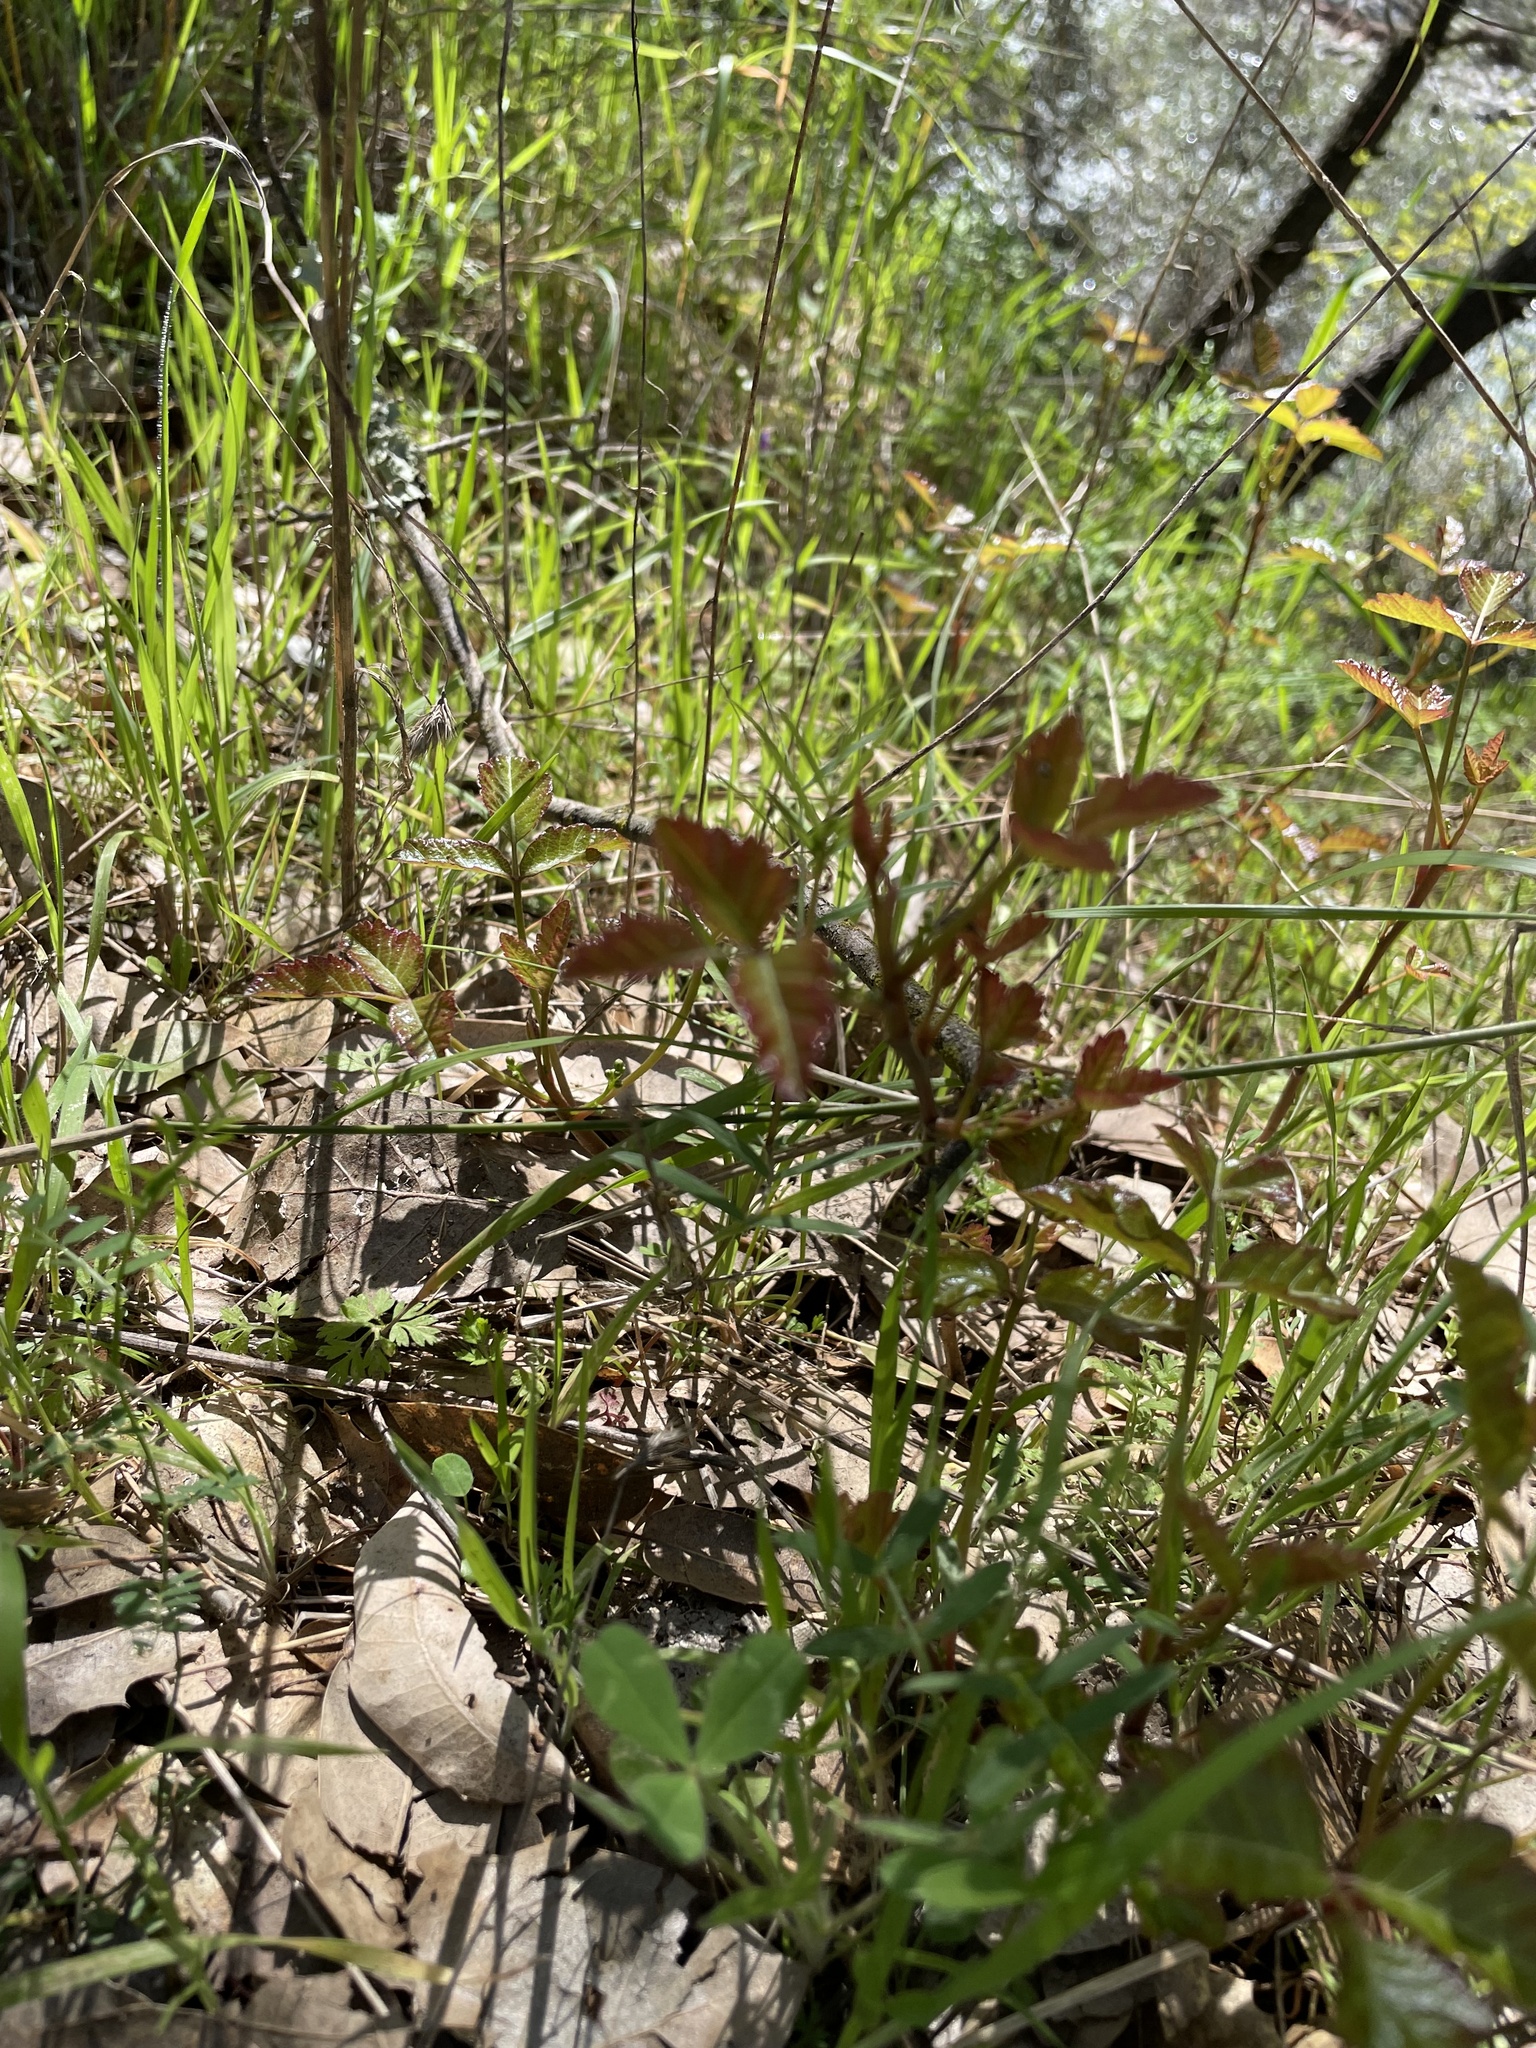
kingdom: Plantae
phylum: Tracheophyta
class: Magnoliopsida
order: Sapindales
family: Anacardiaceae
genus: Toxicodendron
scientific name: Toxicodendron diversilobum
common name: Pacific poison-oak
